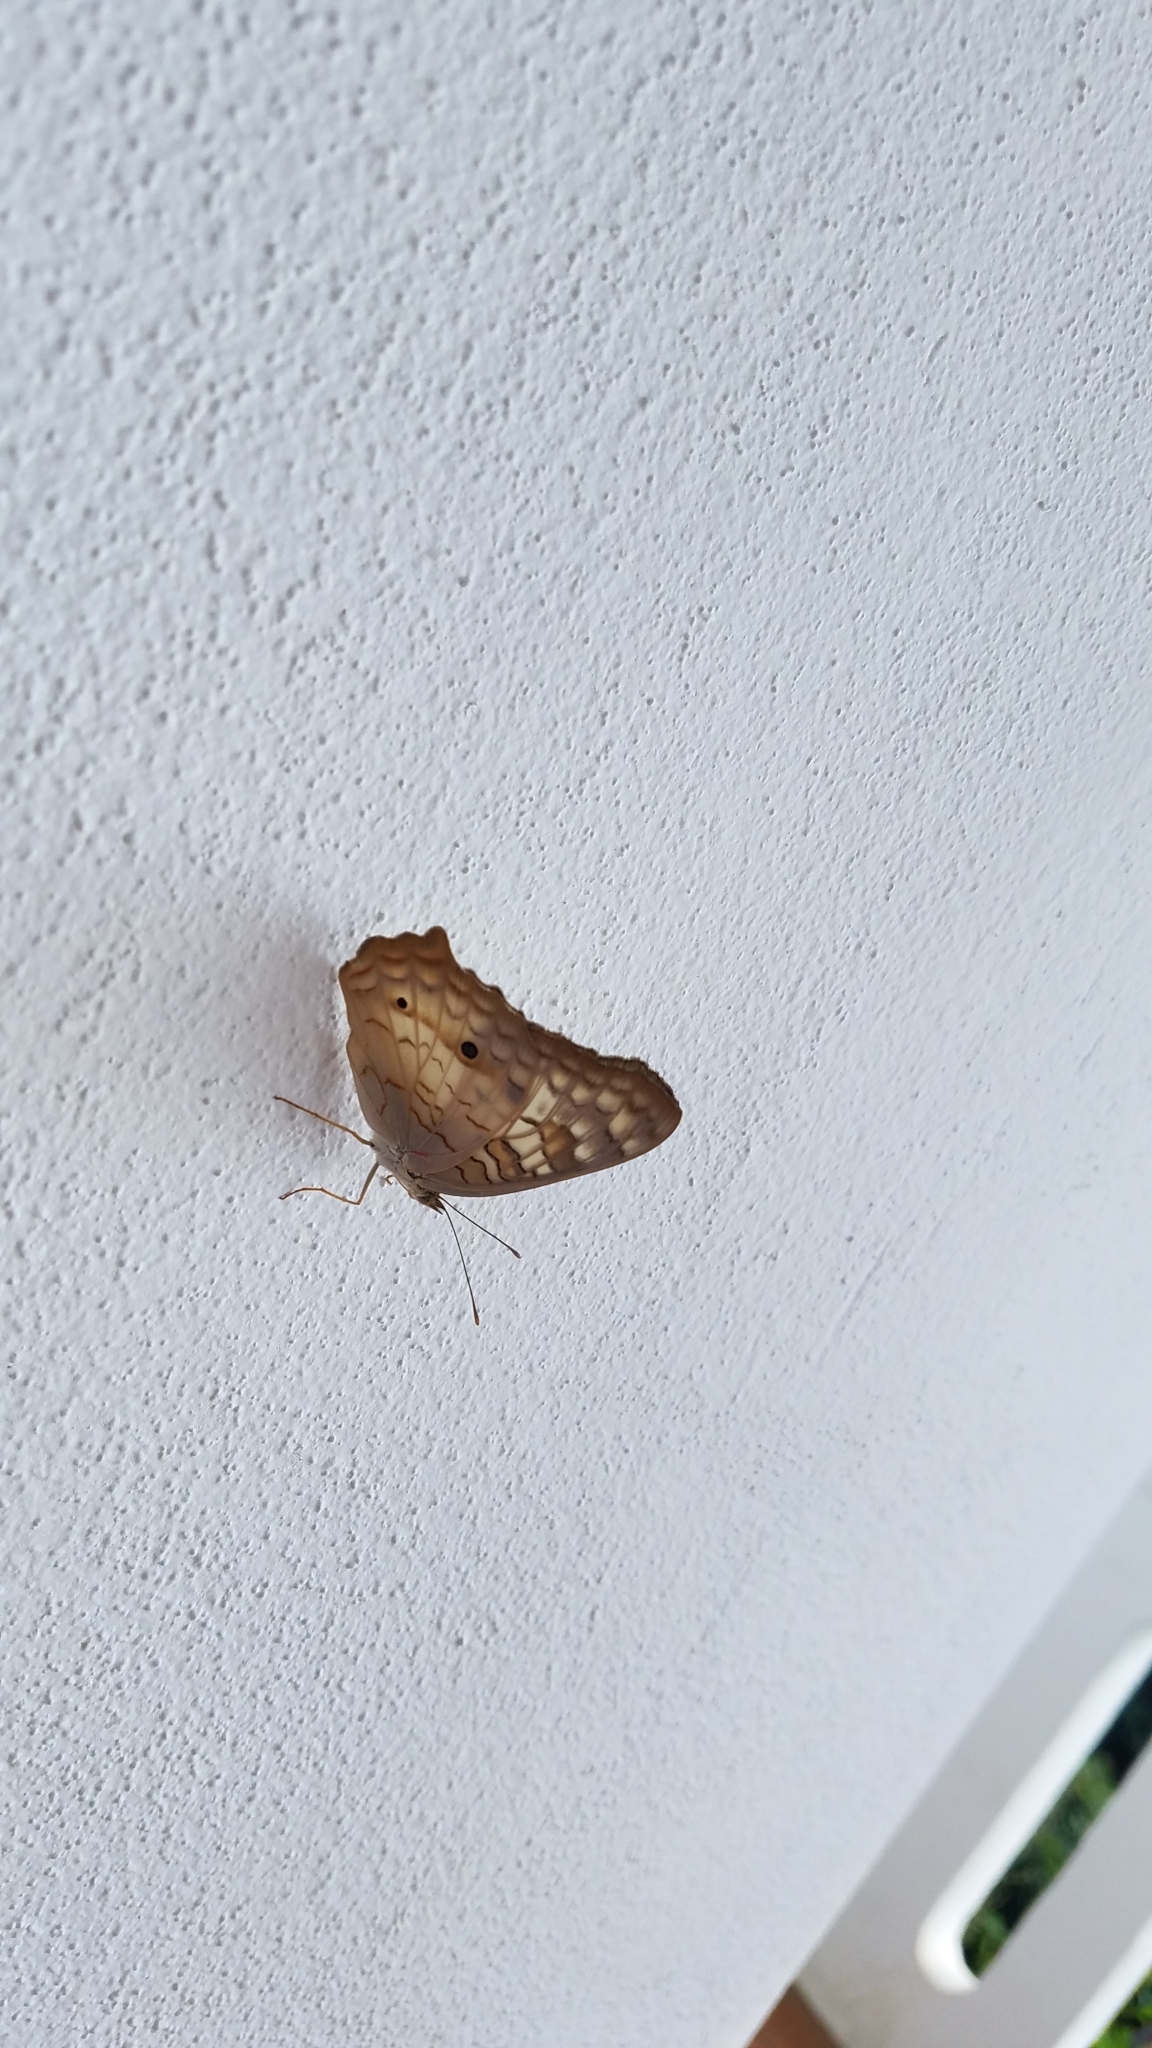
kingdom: Animalia
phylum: Arthropoda
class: Insecta
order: Lepidoptera
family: Nymphalidae
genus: Anartia
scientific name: Anartia jatrophae
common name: White peacock
